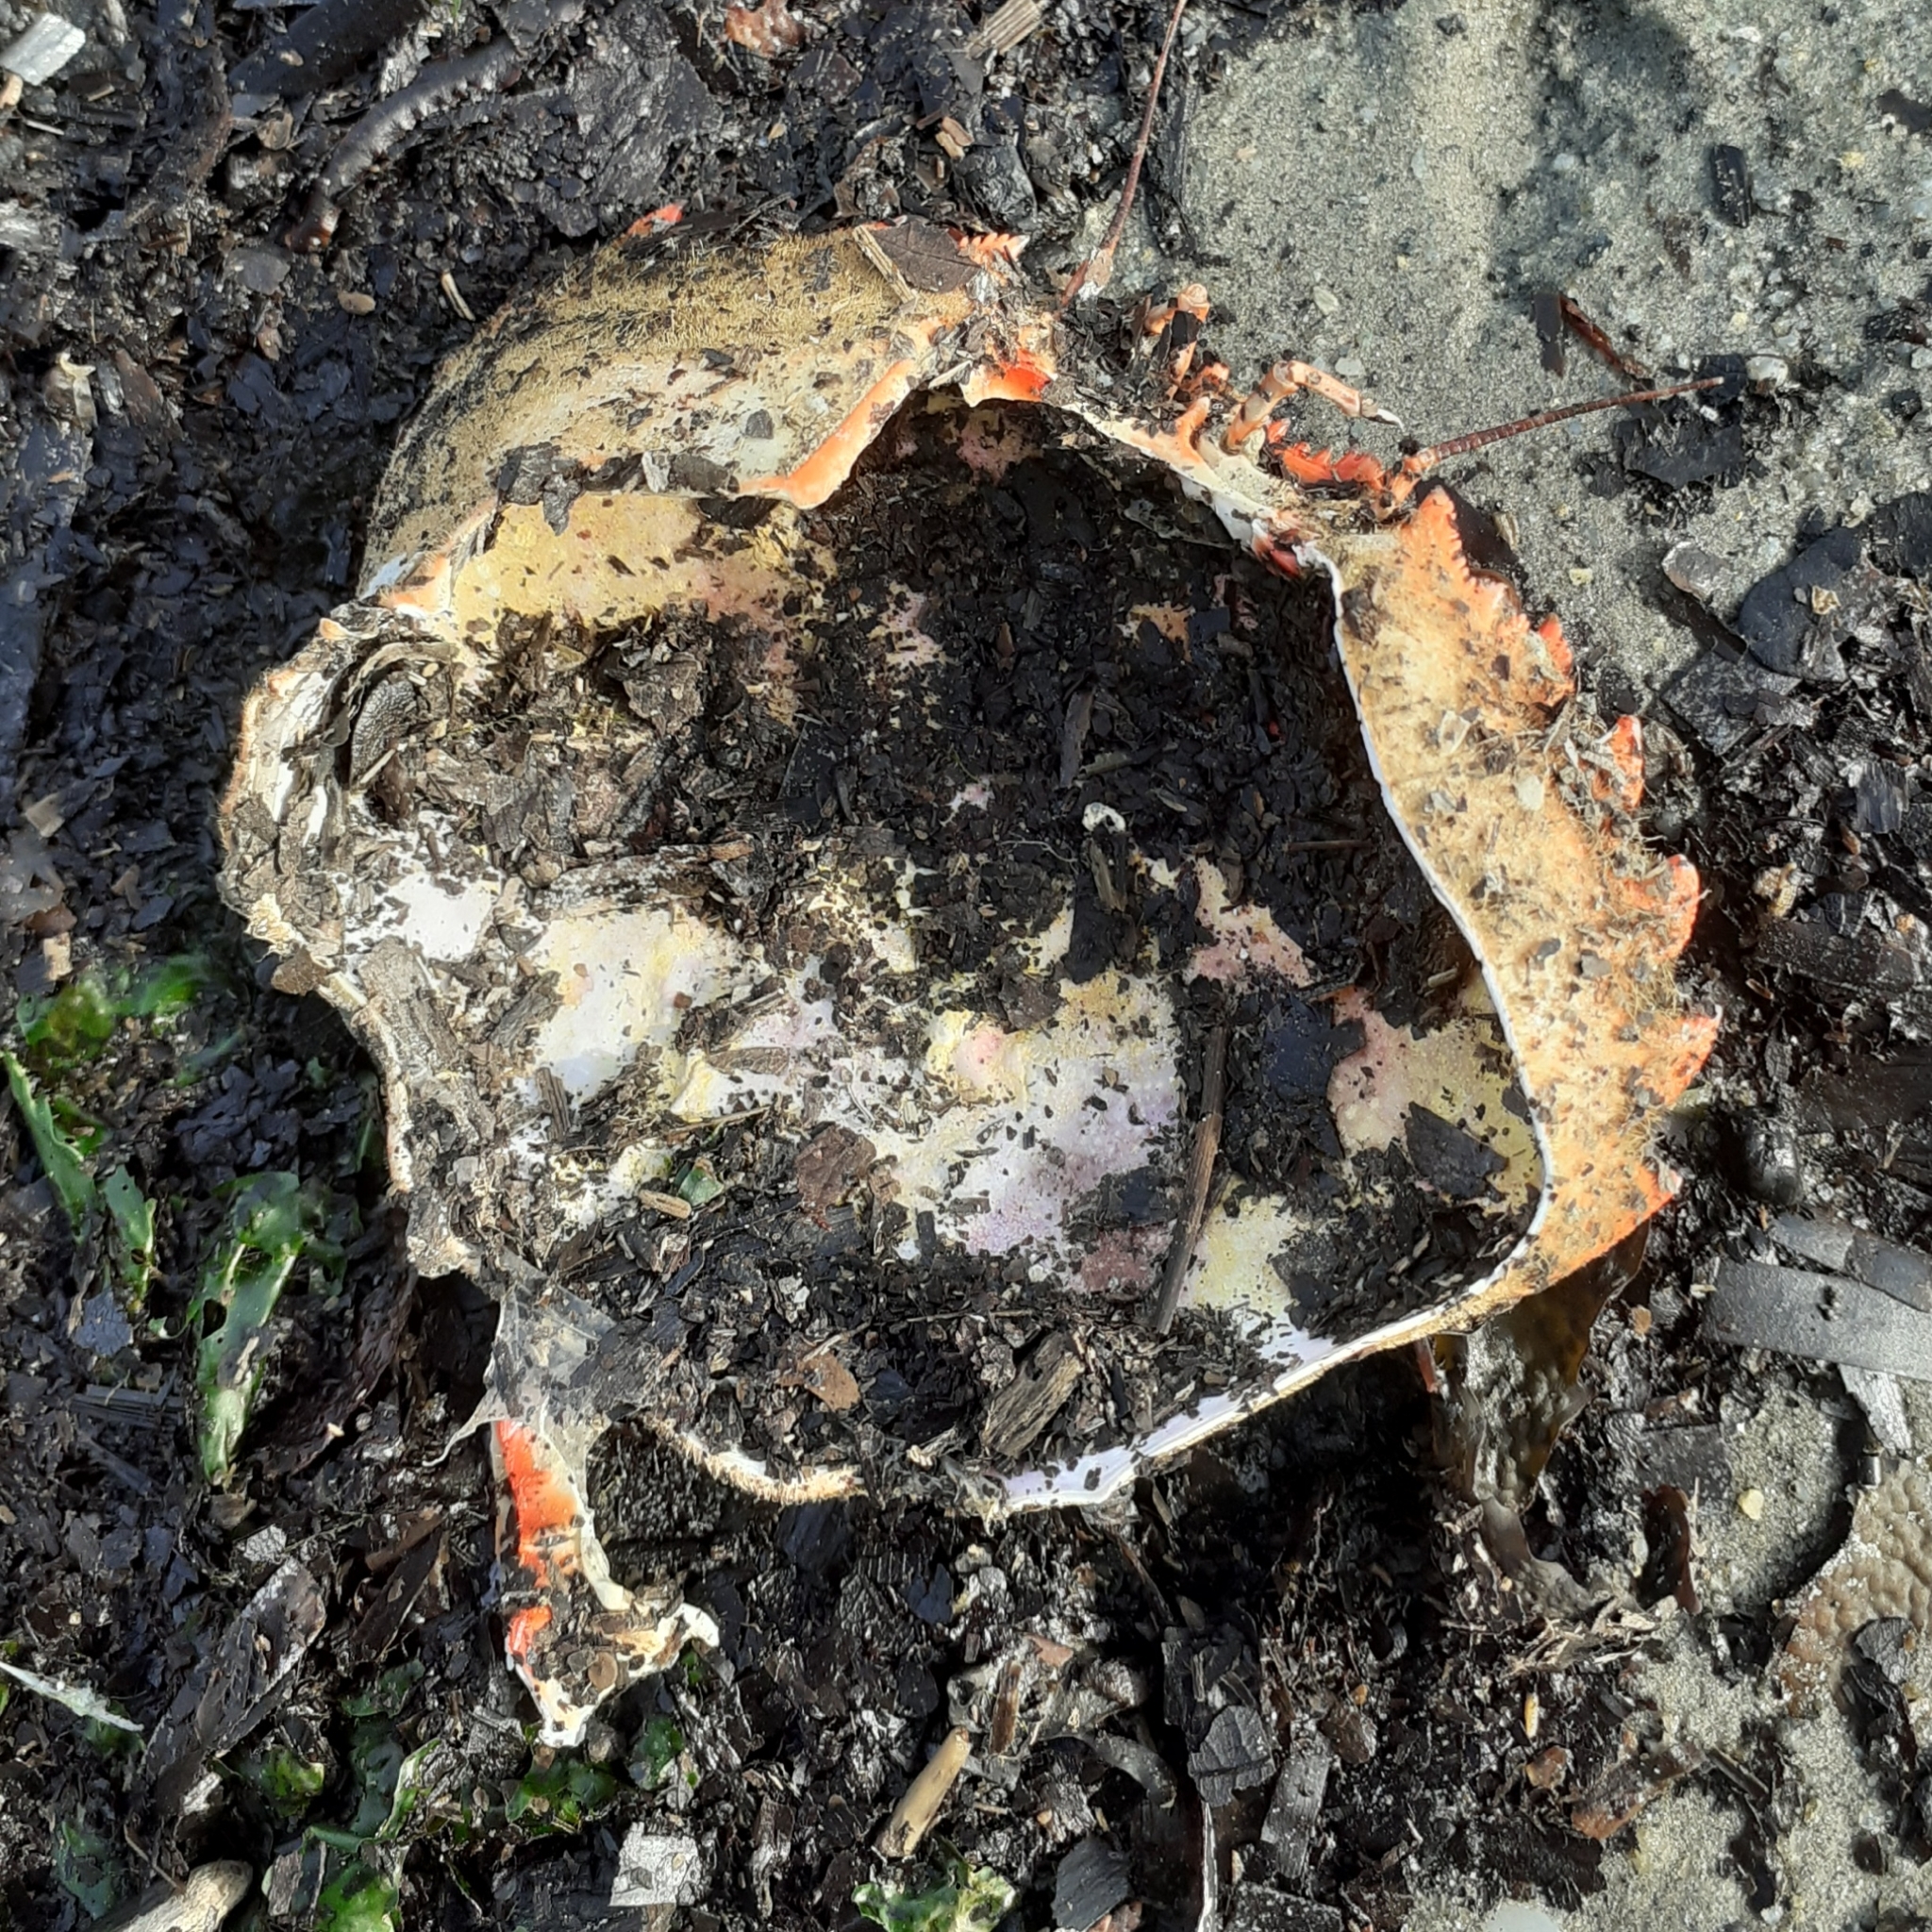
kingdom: Animalia
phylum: Arthropoda
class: Malacostraca
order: Decapoda
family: Polybiidae
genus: Necora
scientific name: Necora puber
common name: Velvet swimming crab
